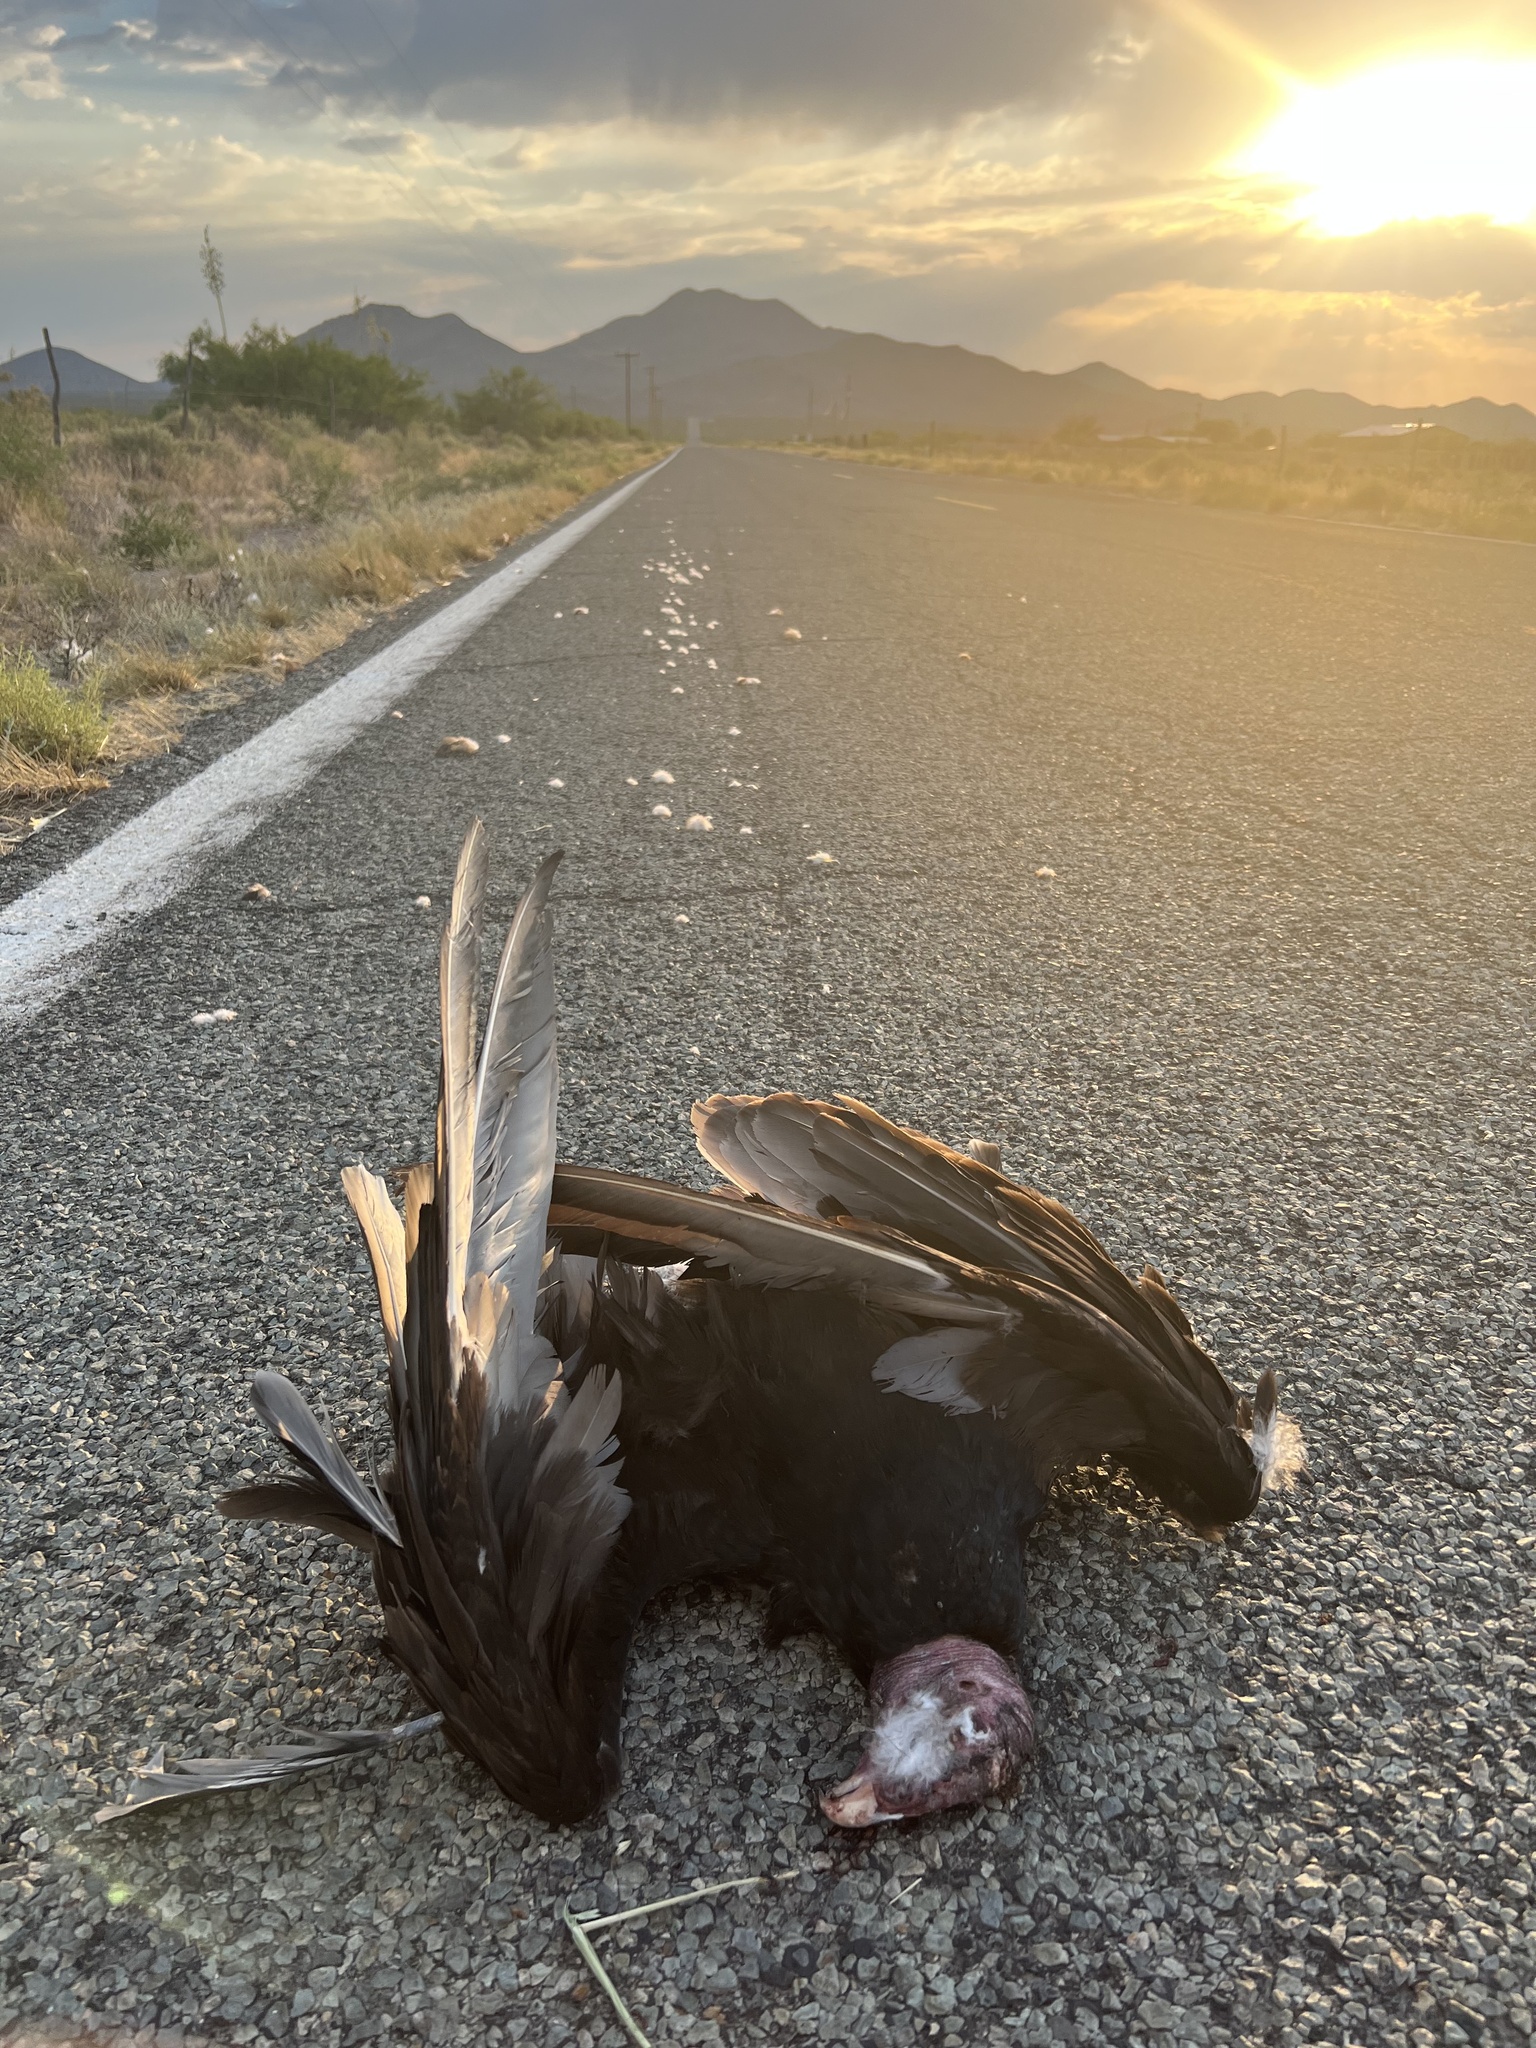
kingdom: Animalia
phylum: Chordata
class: Aves
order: Accipitriformes
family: Cathartidae
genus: Cathartes
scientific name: Cathartes aura
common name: Turkey vulture
